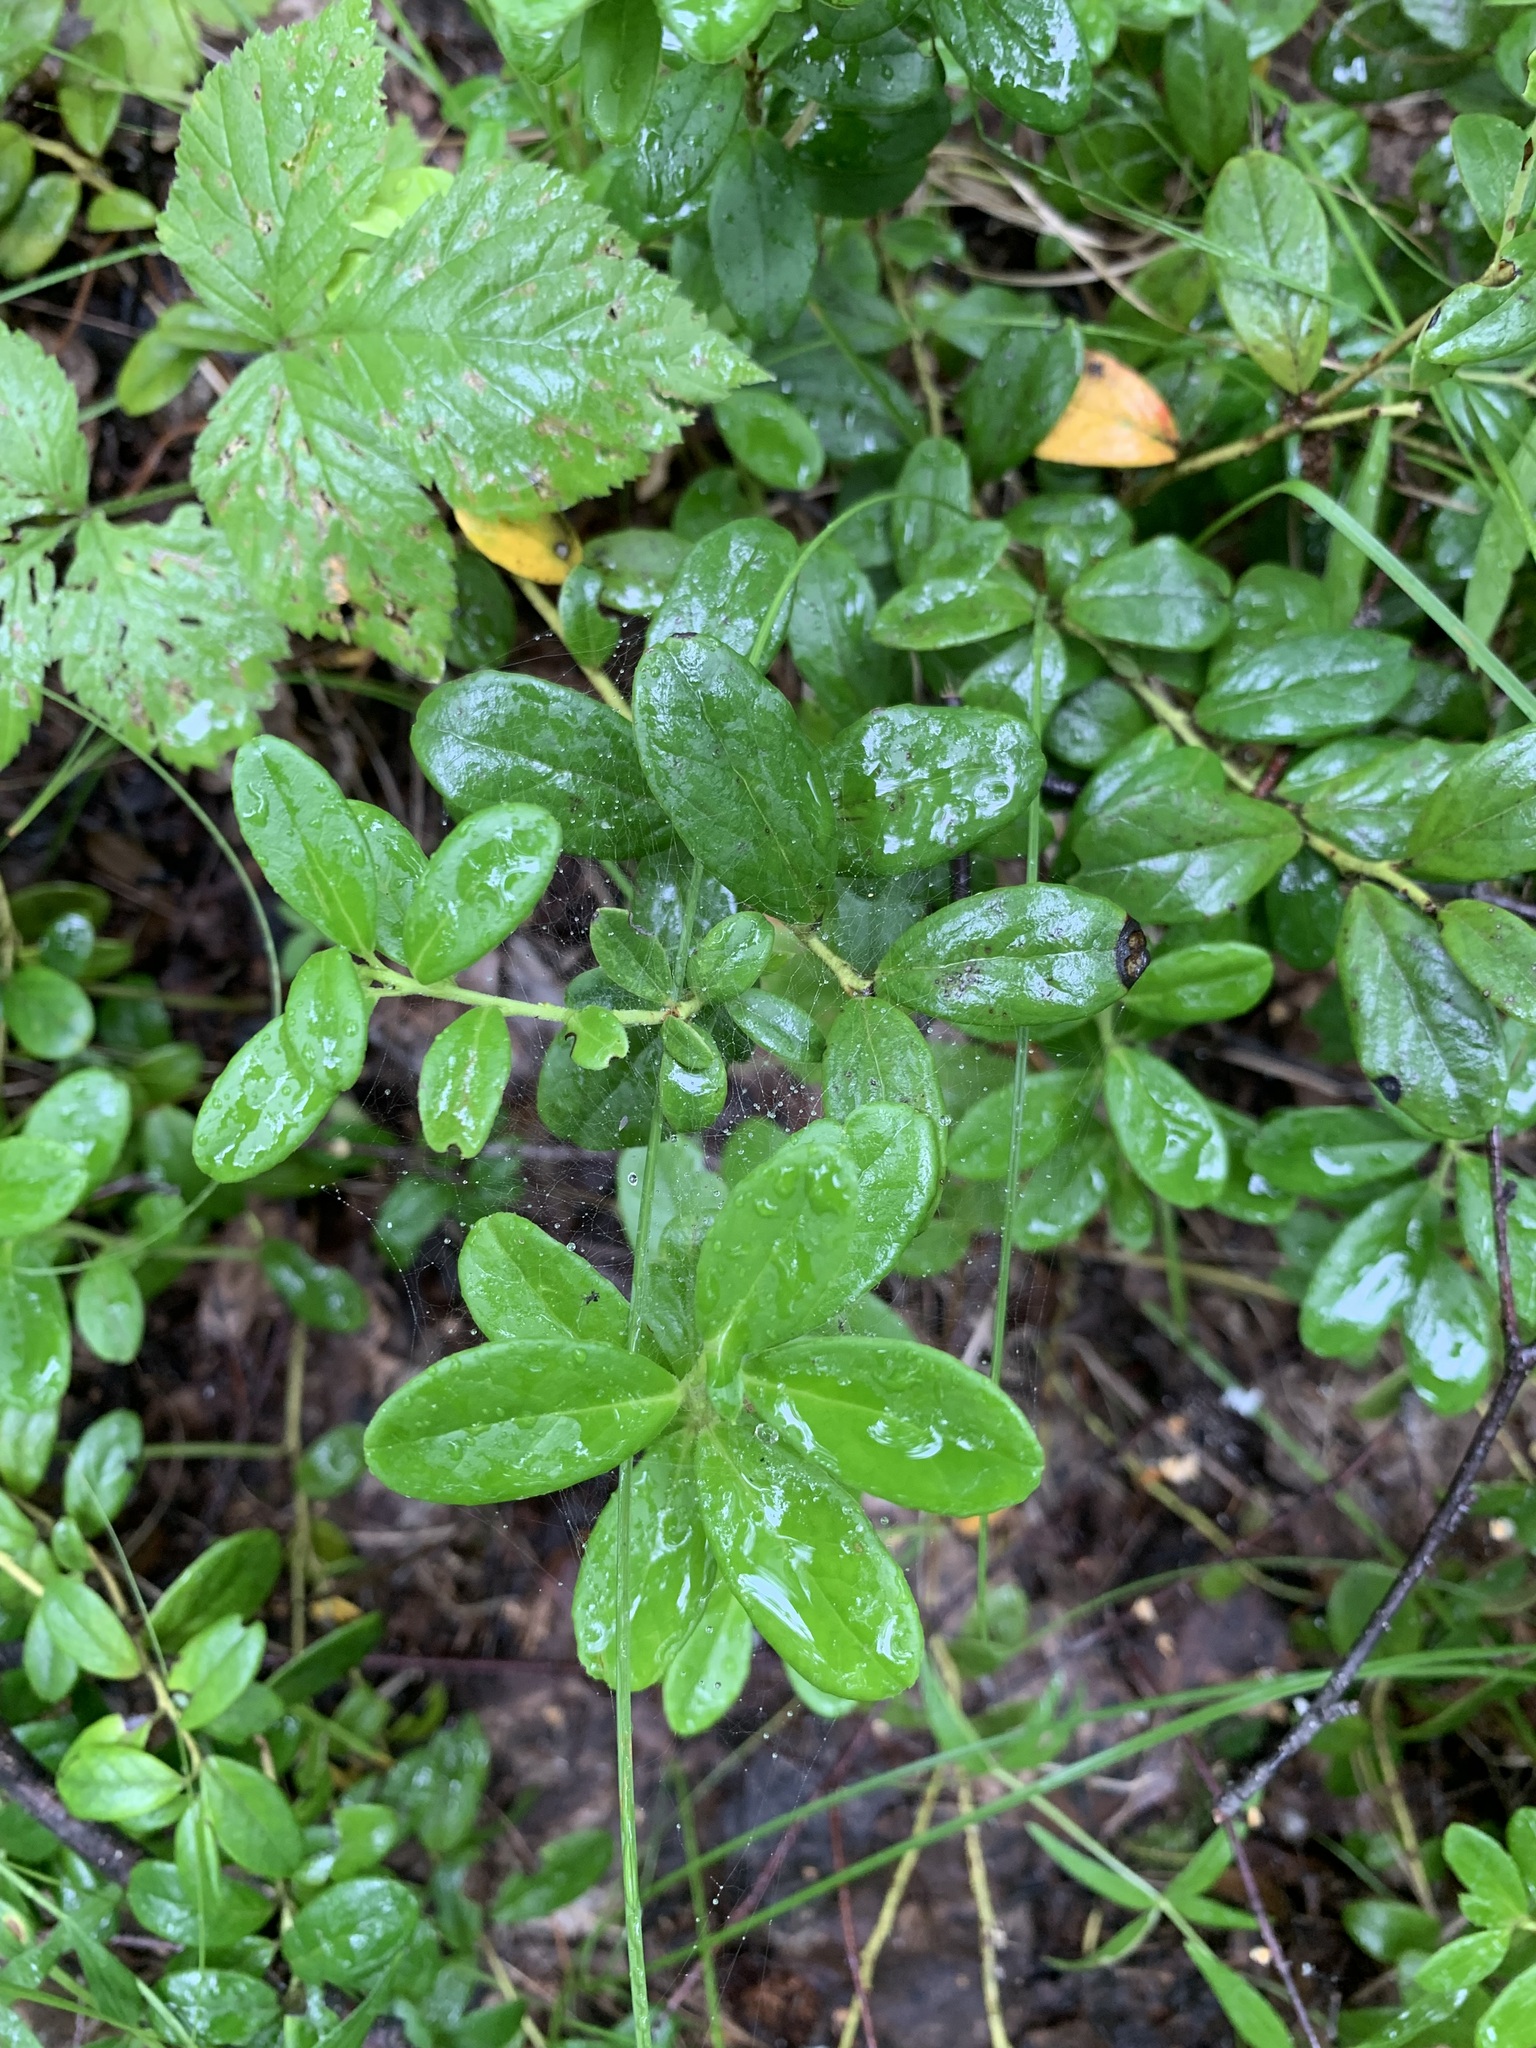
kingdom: Plantae
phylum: Tracheophyta
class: Magnoliopsida
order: Ericales
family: Ericaceae
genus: Vaccinium
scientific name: Vaccinium vitis-idaea
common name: Cowberry
